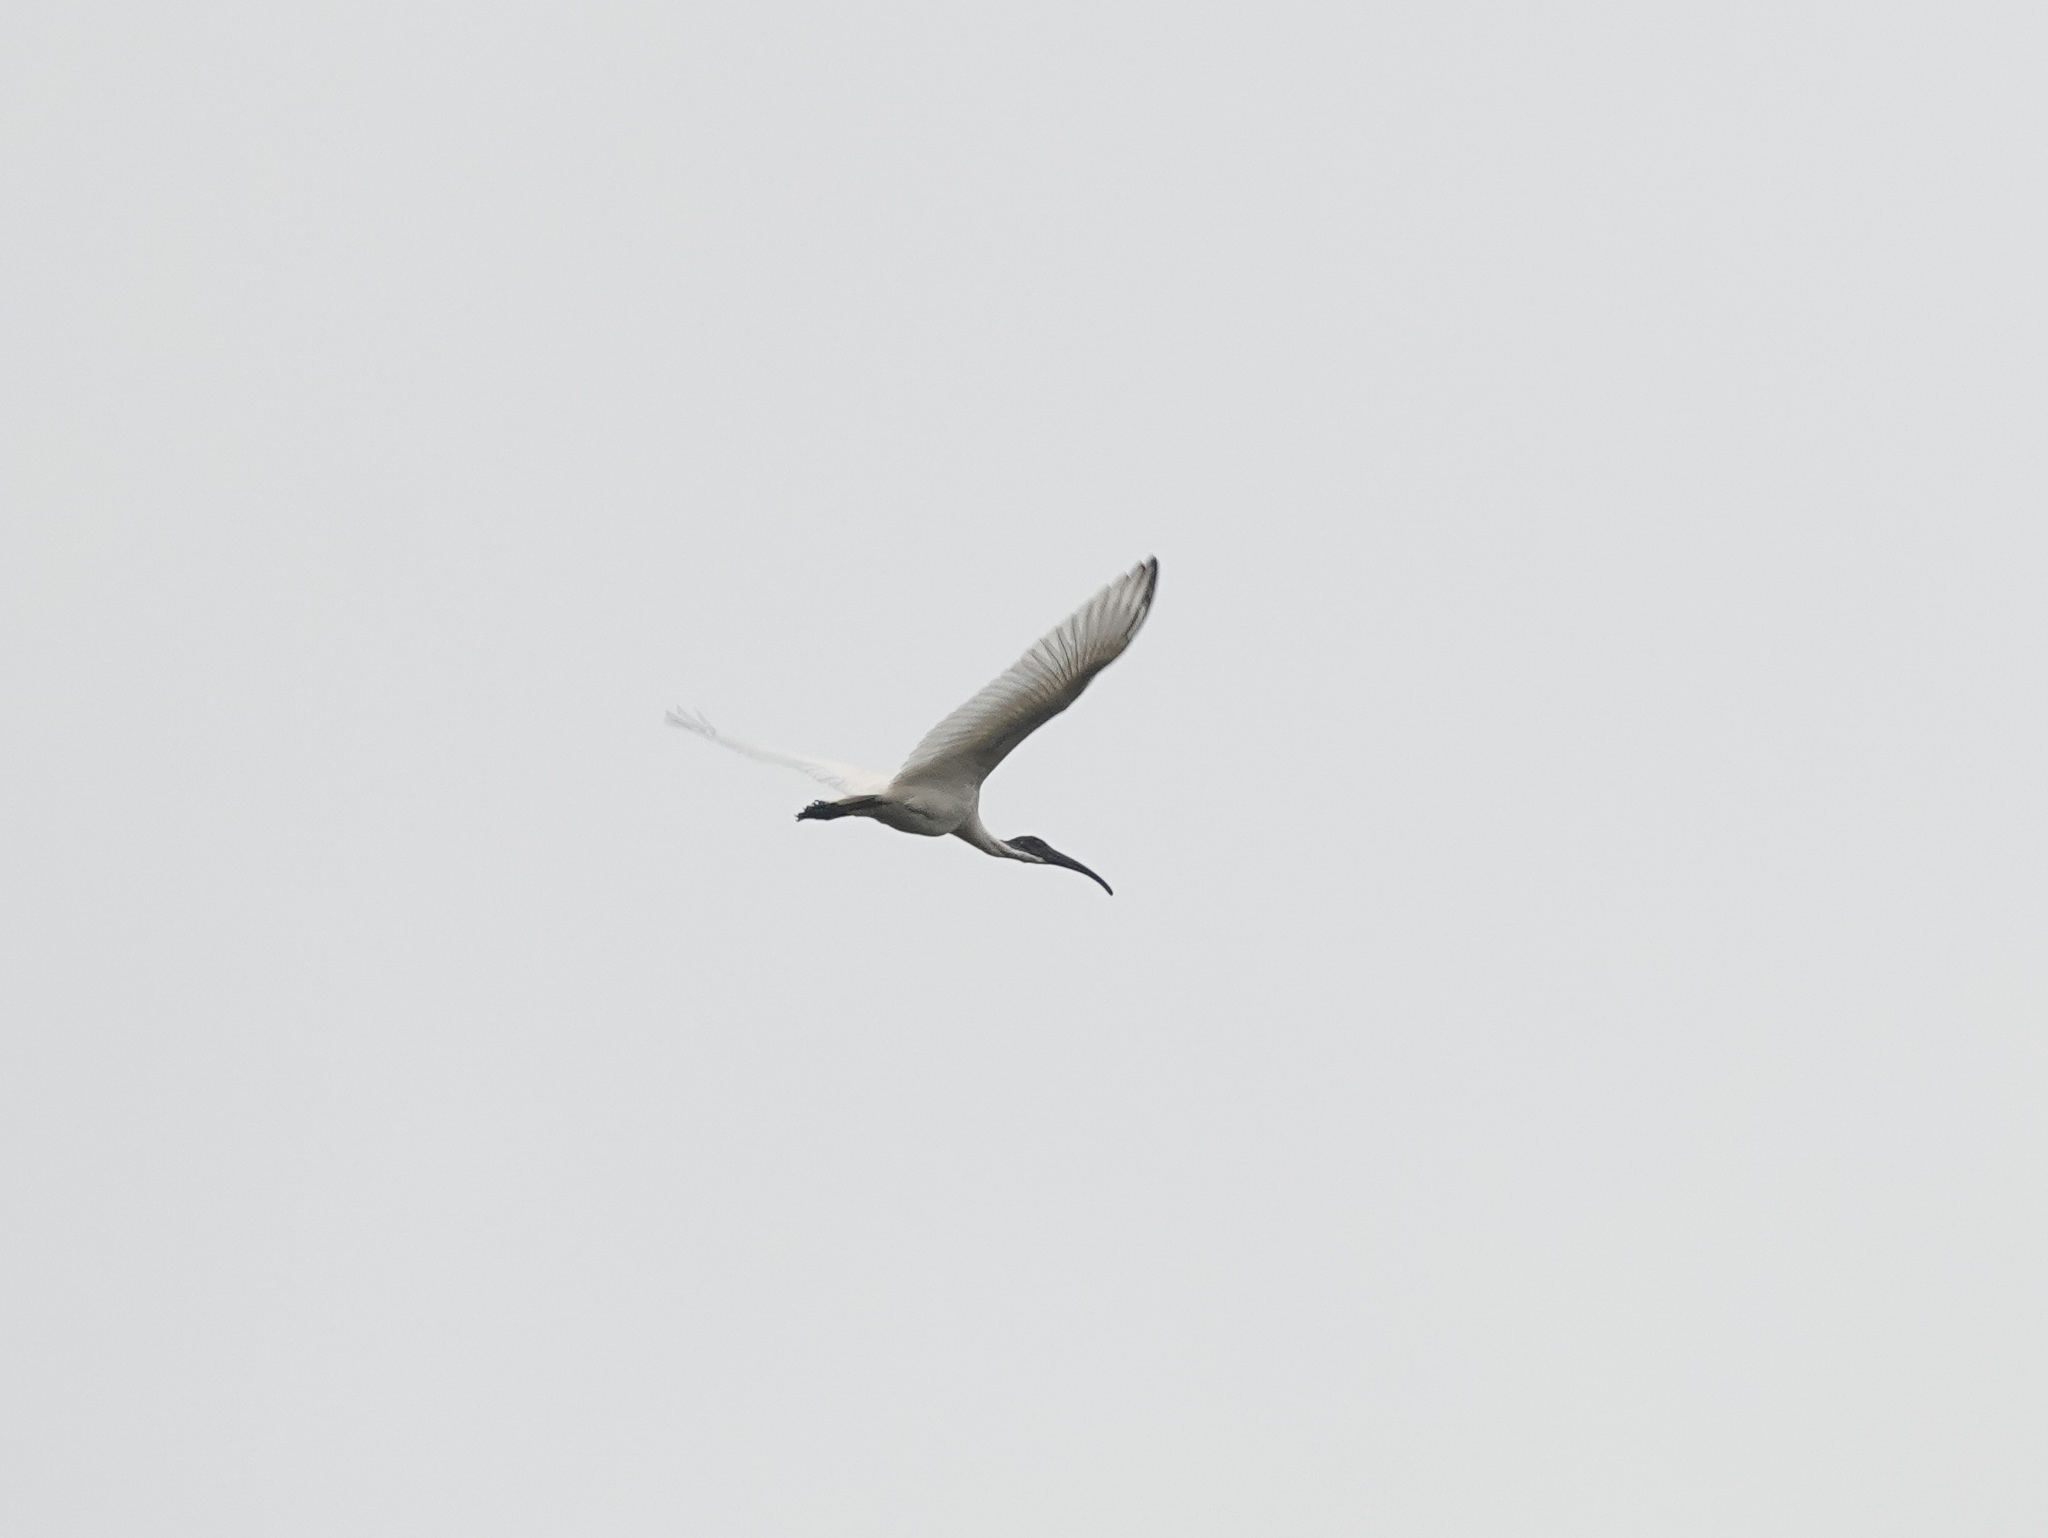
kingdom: Animalia
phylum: Chordata
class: Aves
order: Pelecaniformes
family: Threskiornithidae
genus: Threskiornis
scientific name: Threskiornis melanocephalus
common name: Black-headed ibis
